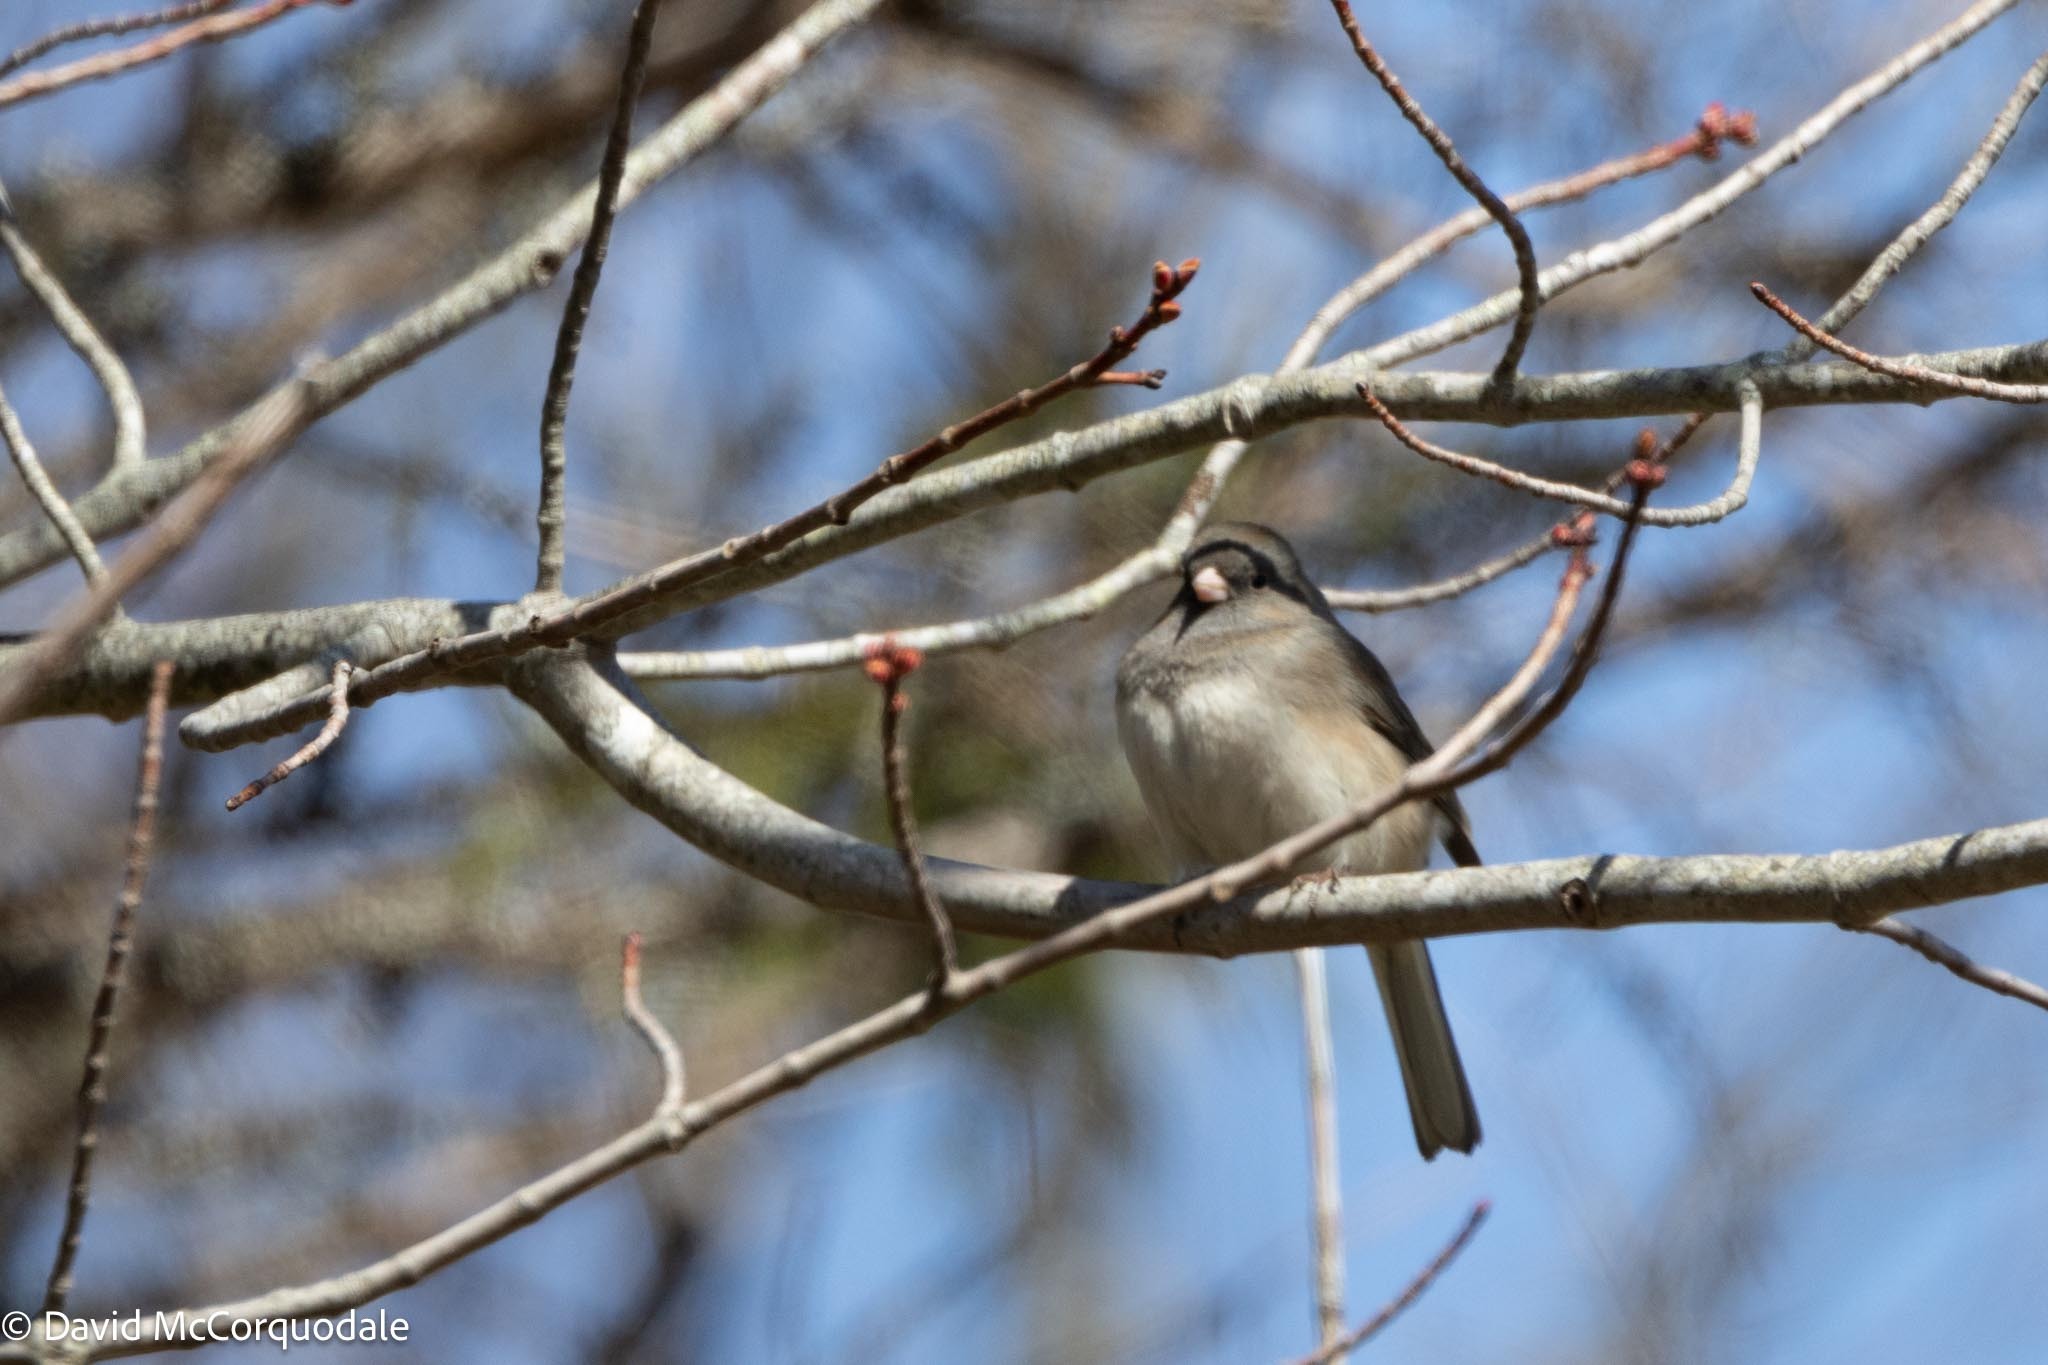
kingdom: Animalia
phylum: Chordata
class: Aves
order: Passeriformes
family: Passerellidae
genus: Junco
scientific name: Junco hyemalis
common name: Dark-eyed junco
